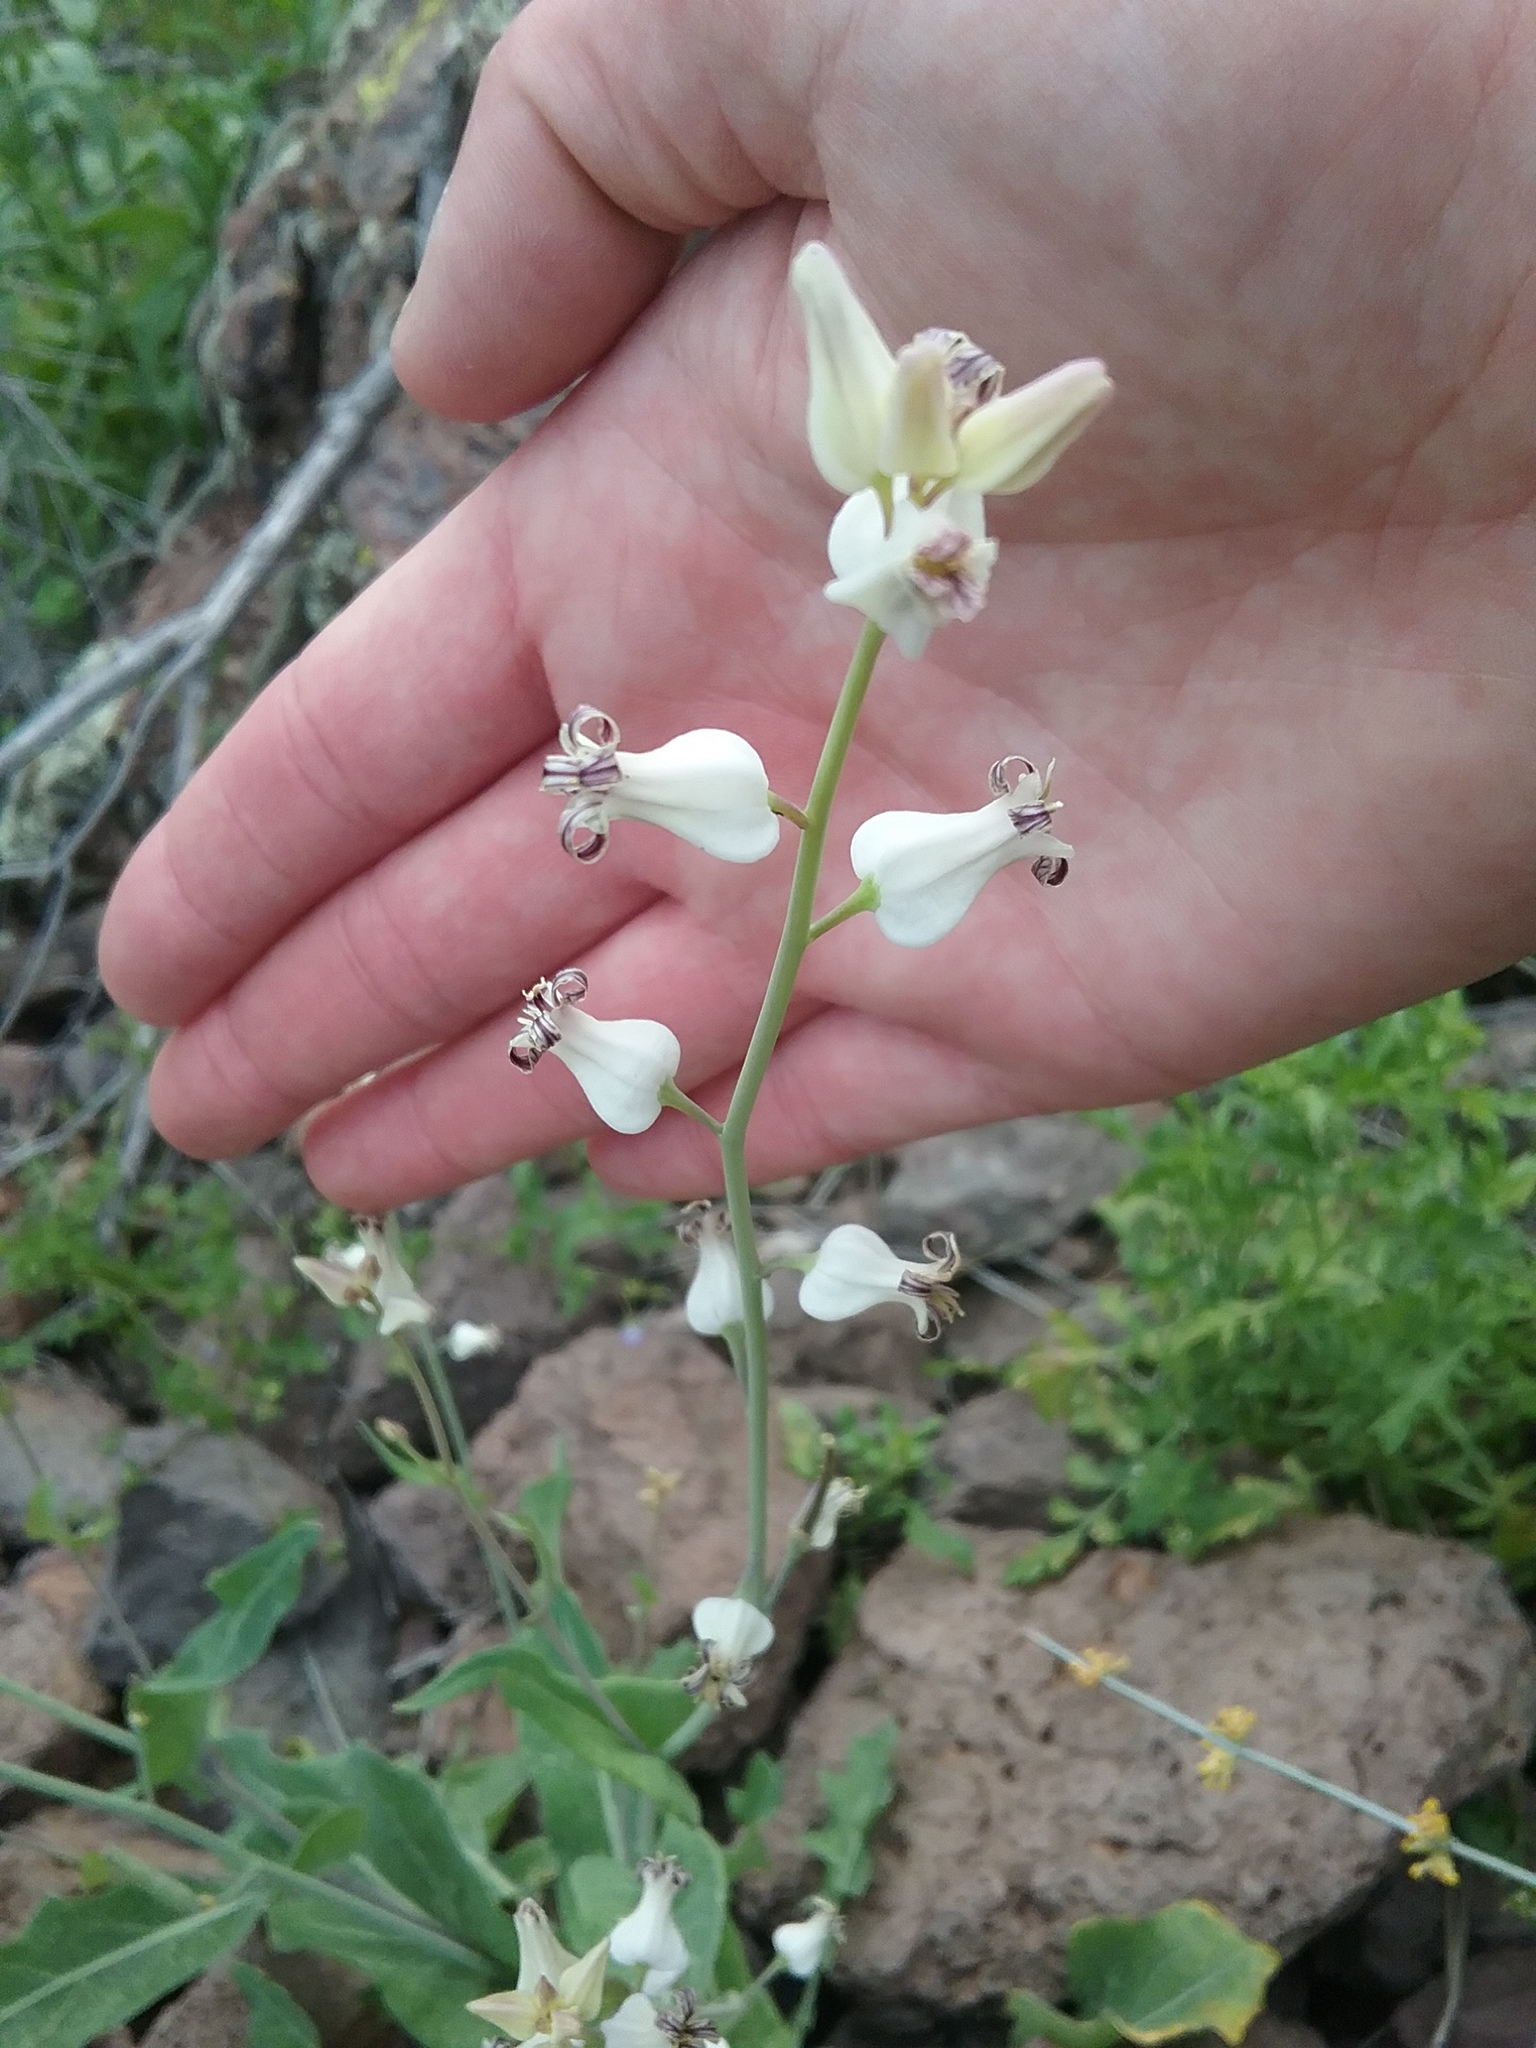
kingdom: Plantae
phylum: Tracheophyta
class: Magnoliopsida
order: Brassicales
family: Brassicaceae
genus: Streptanthus
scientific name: Streptanthus carinatus
